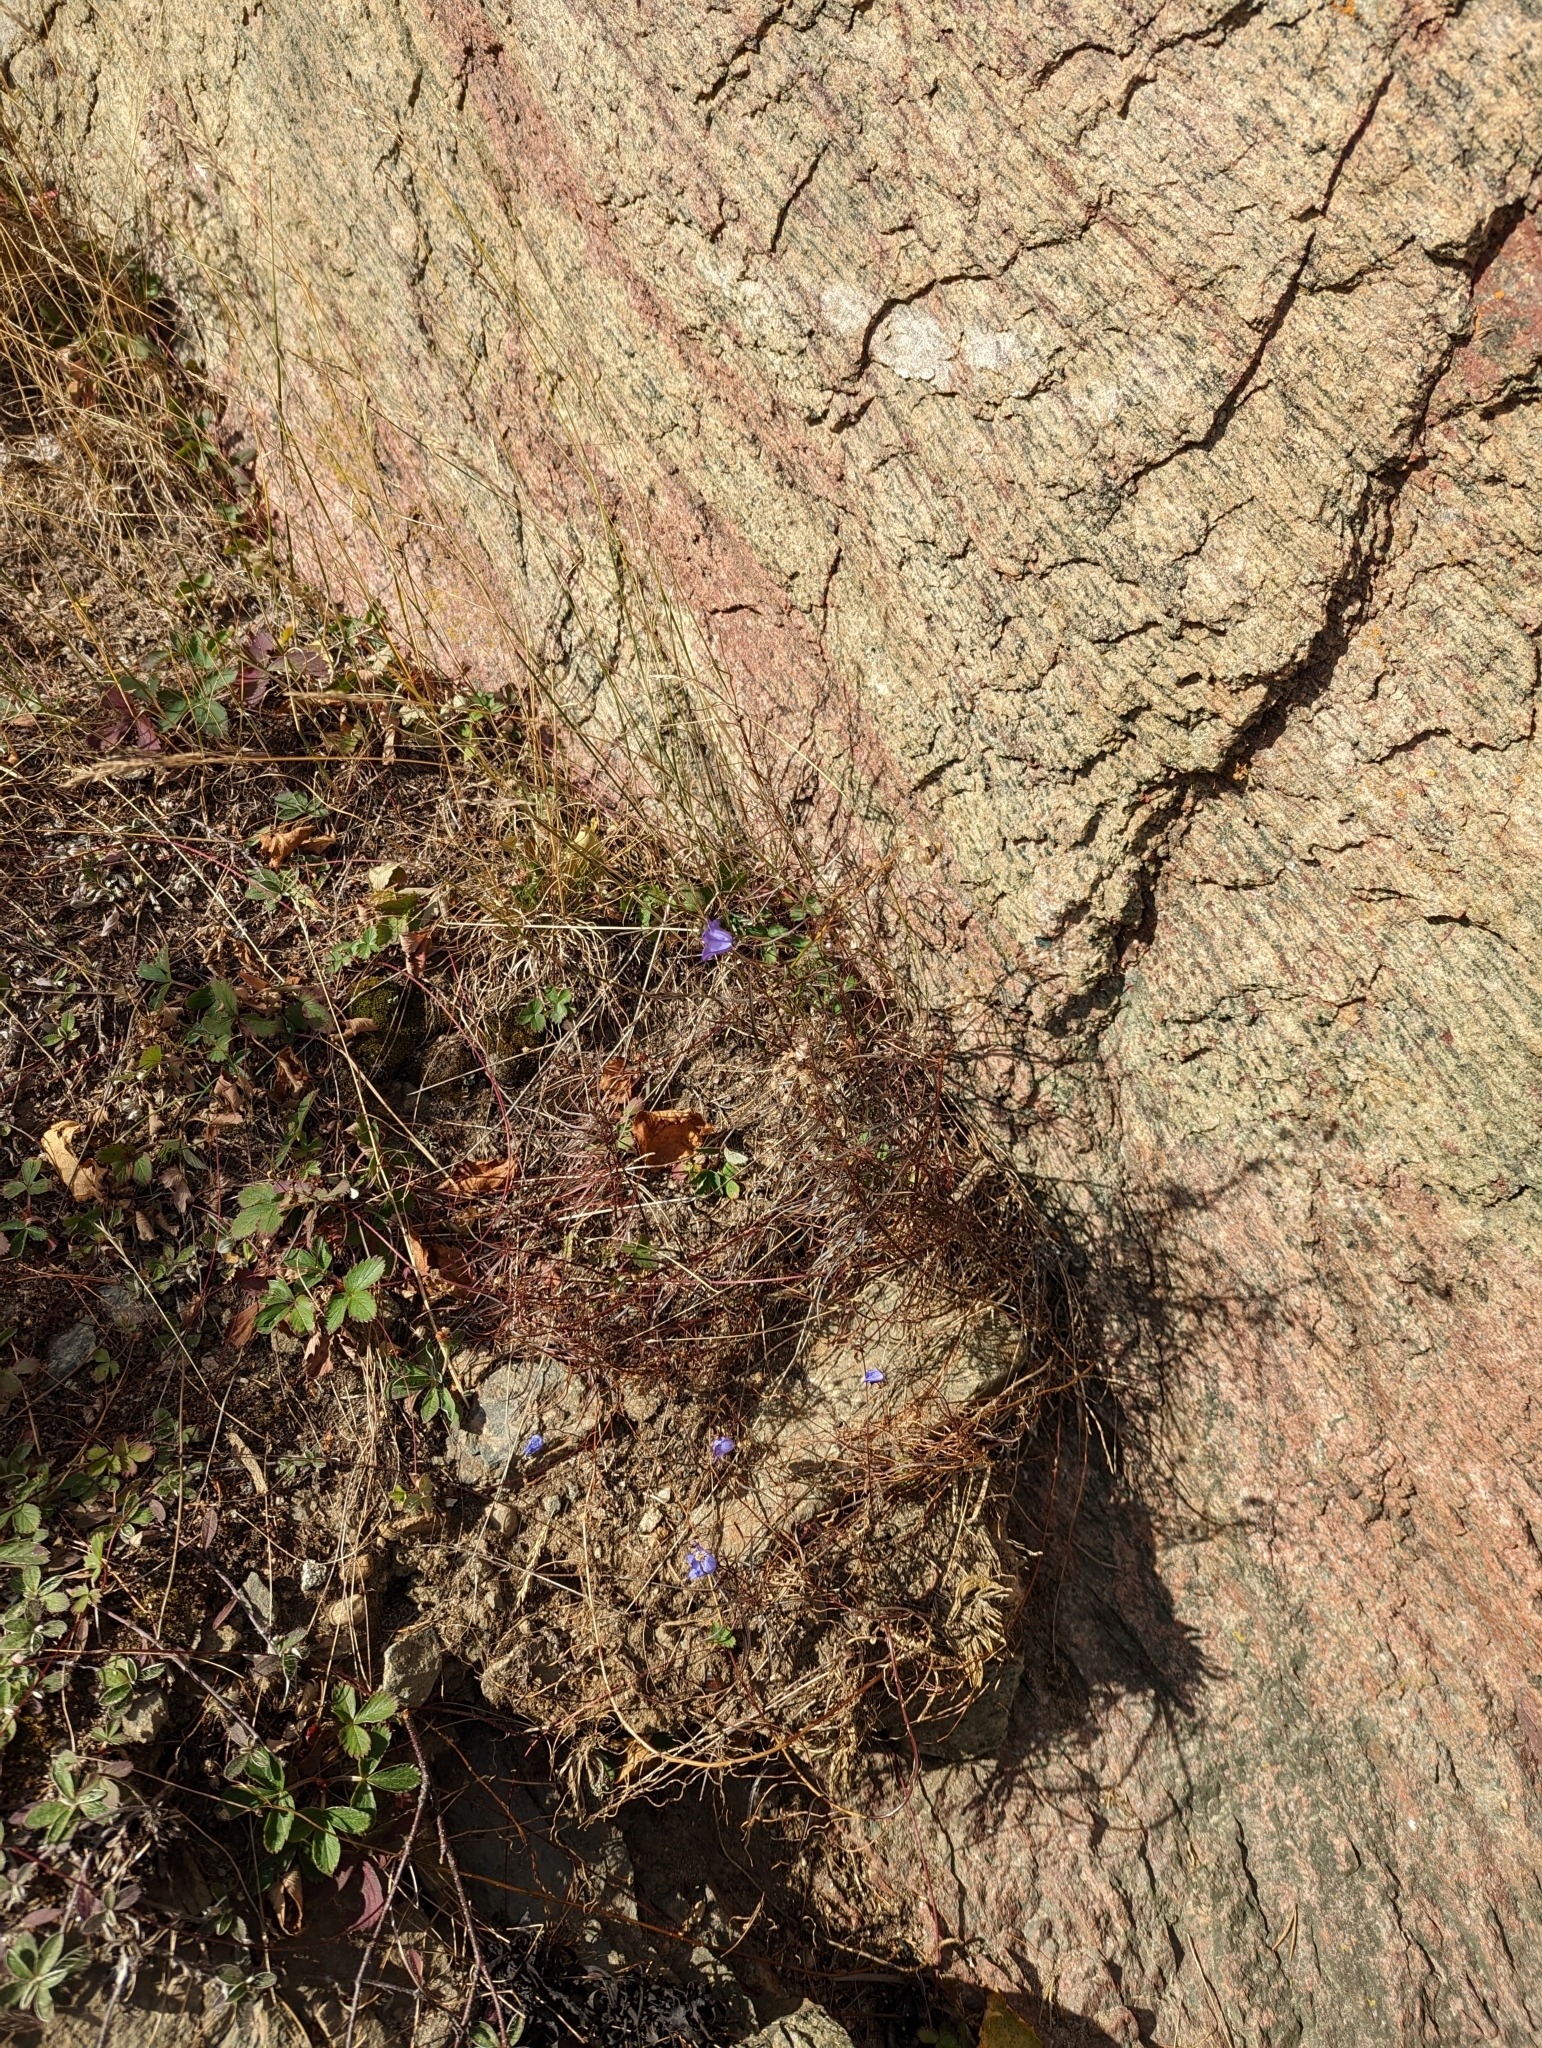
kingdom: Plantae
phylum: Tracheophyta
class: Magnoliopsida
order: Asterales
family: Campanulaceae
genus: Campanula
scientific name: Campanula intercedens
